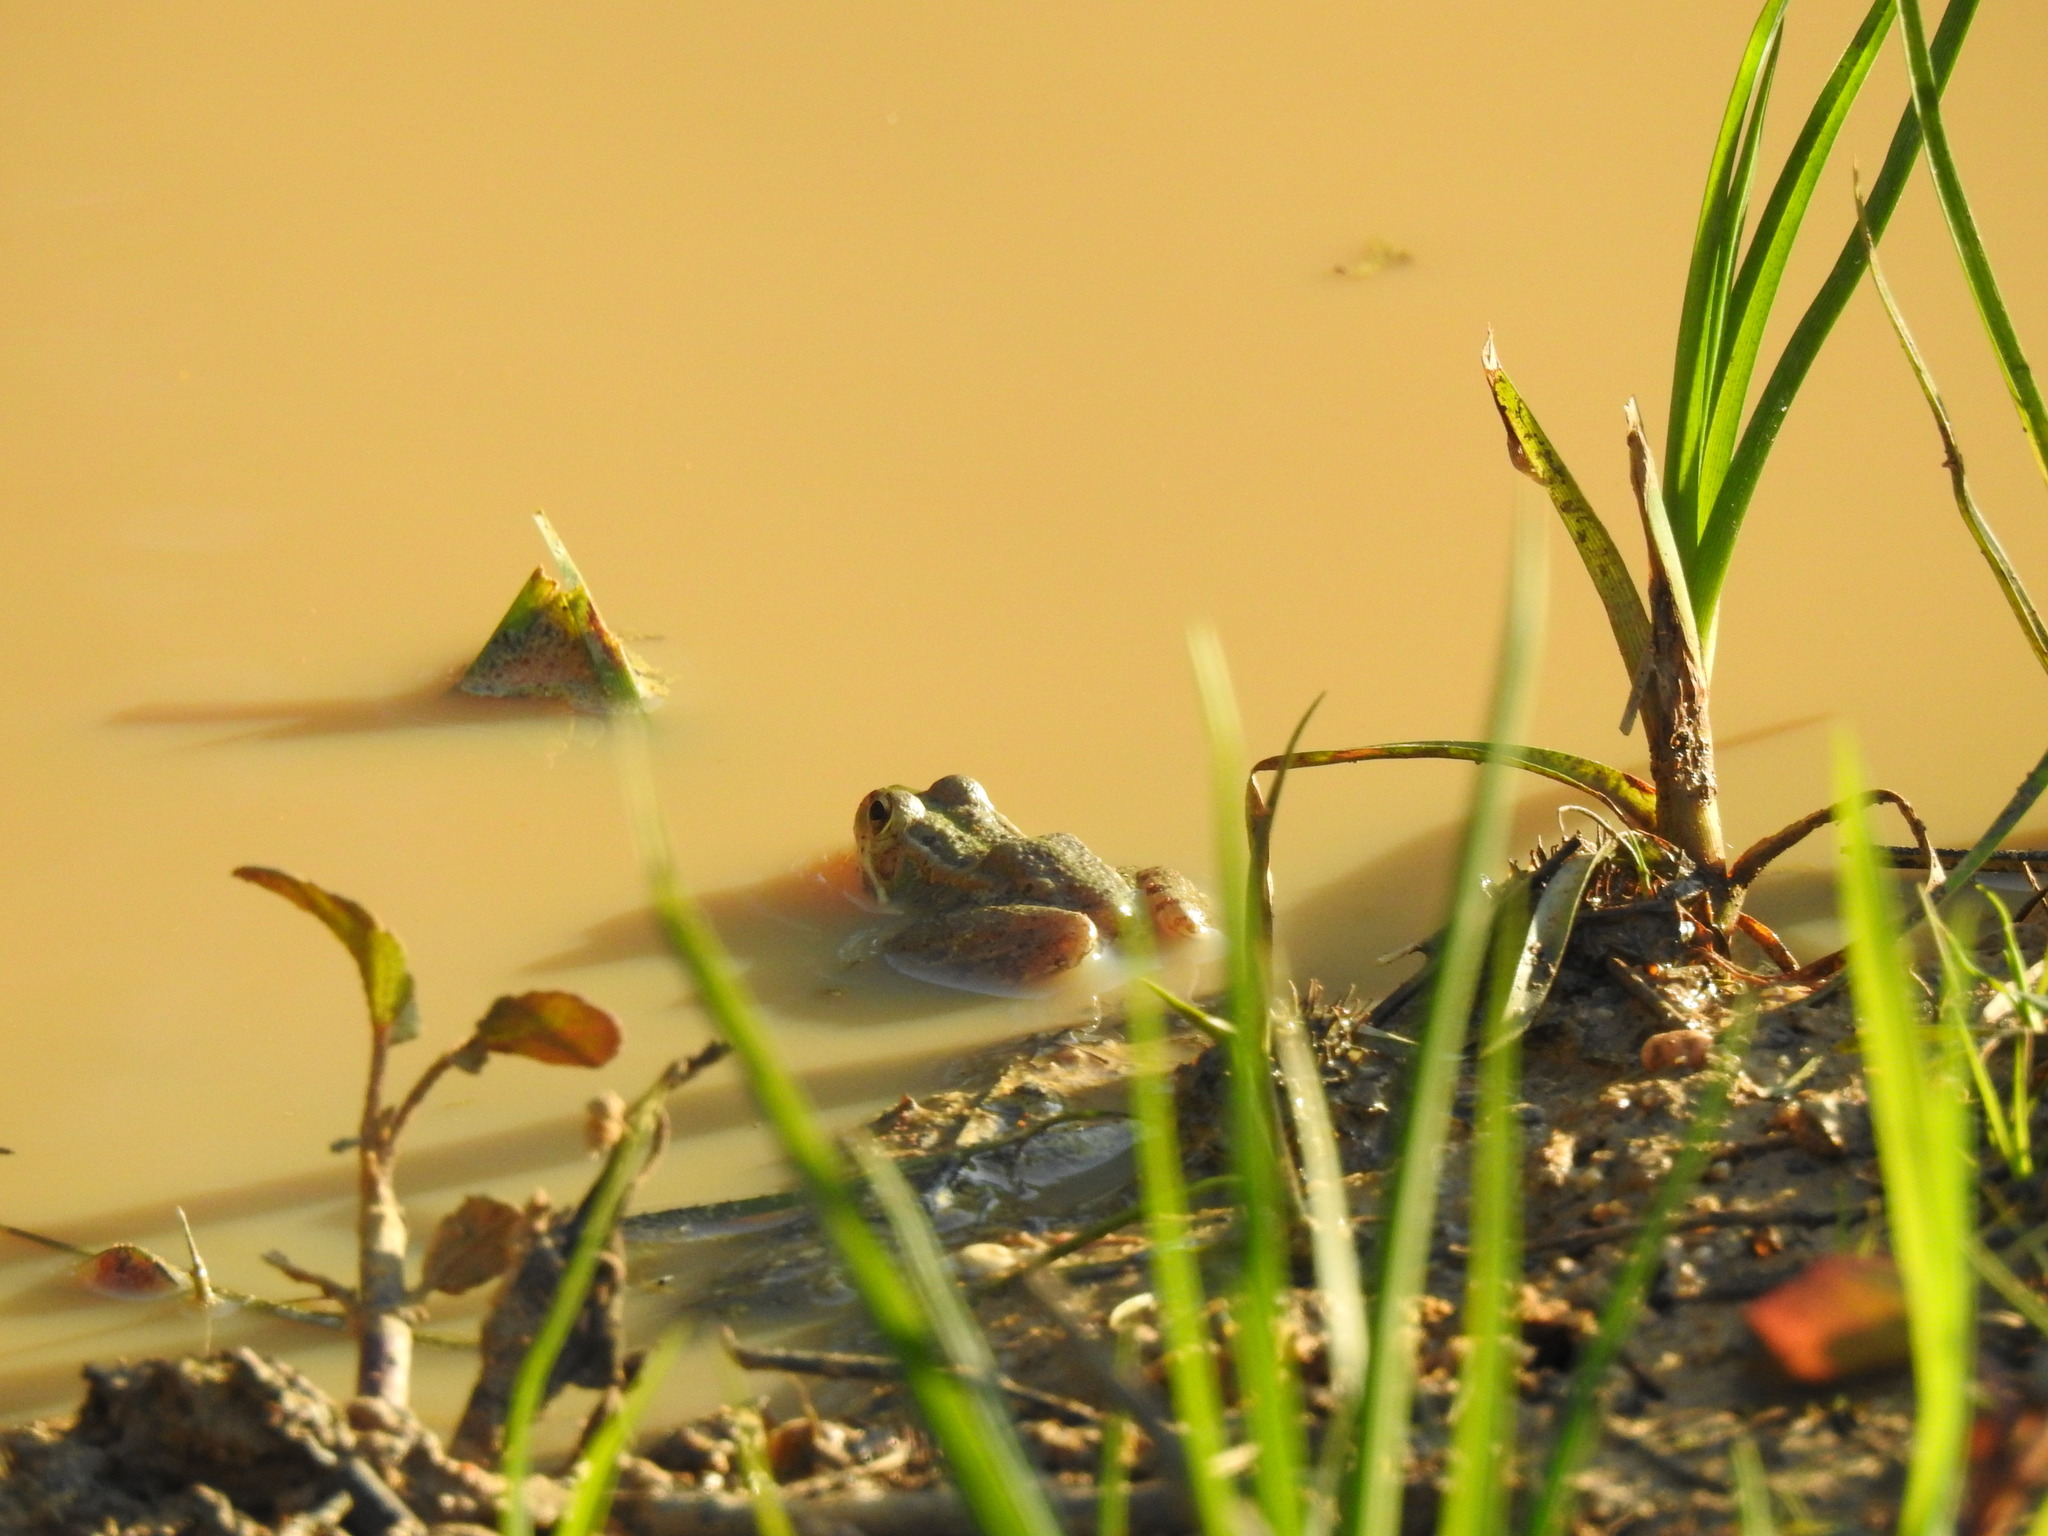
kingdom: Animalia
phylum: Chordata
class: Amphibia
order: Anura
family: Ranidae
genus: Pelophylax
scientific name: Pelophylax perezi
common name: Perez's frog
